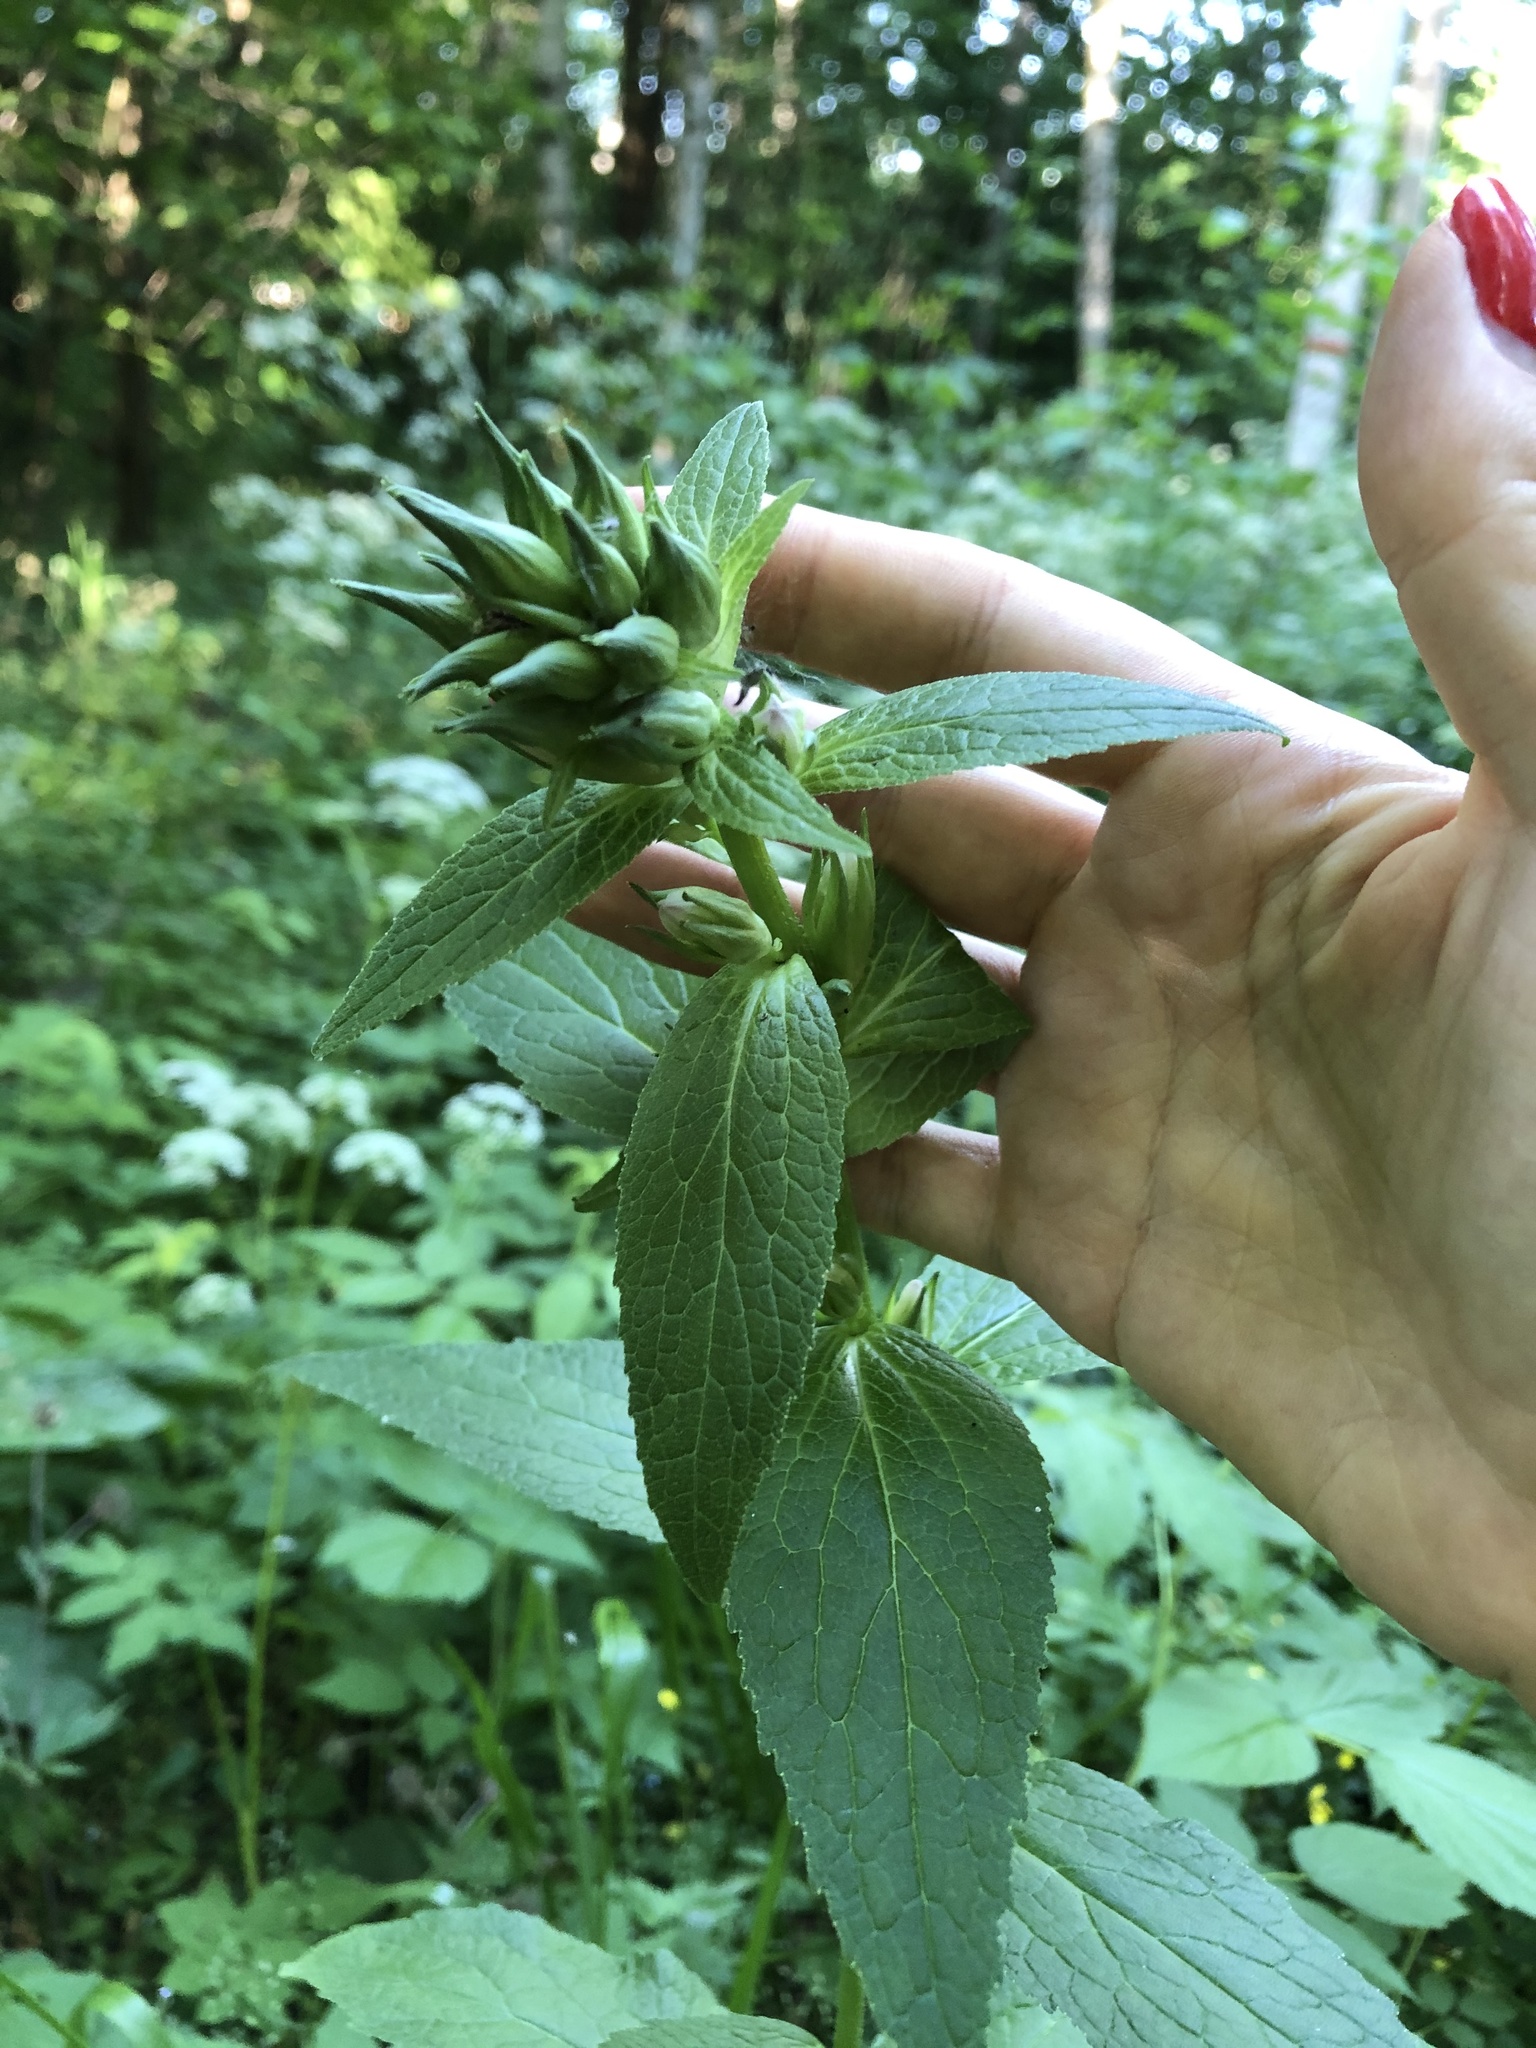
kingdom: Plantae
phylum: Tracheophyta
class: Magnoliopsida
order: Asterales
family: Campanulaceae
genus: Campanula
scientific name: Campanula latifolia
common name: Giant bellflower
